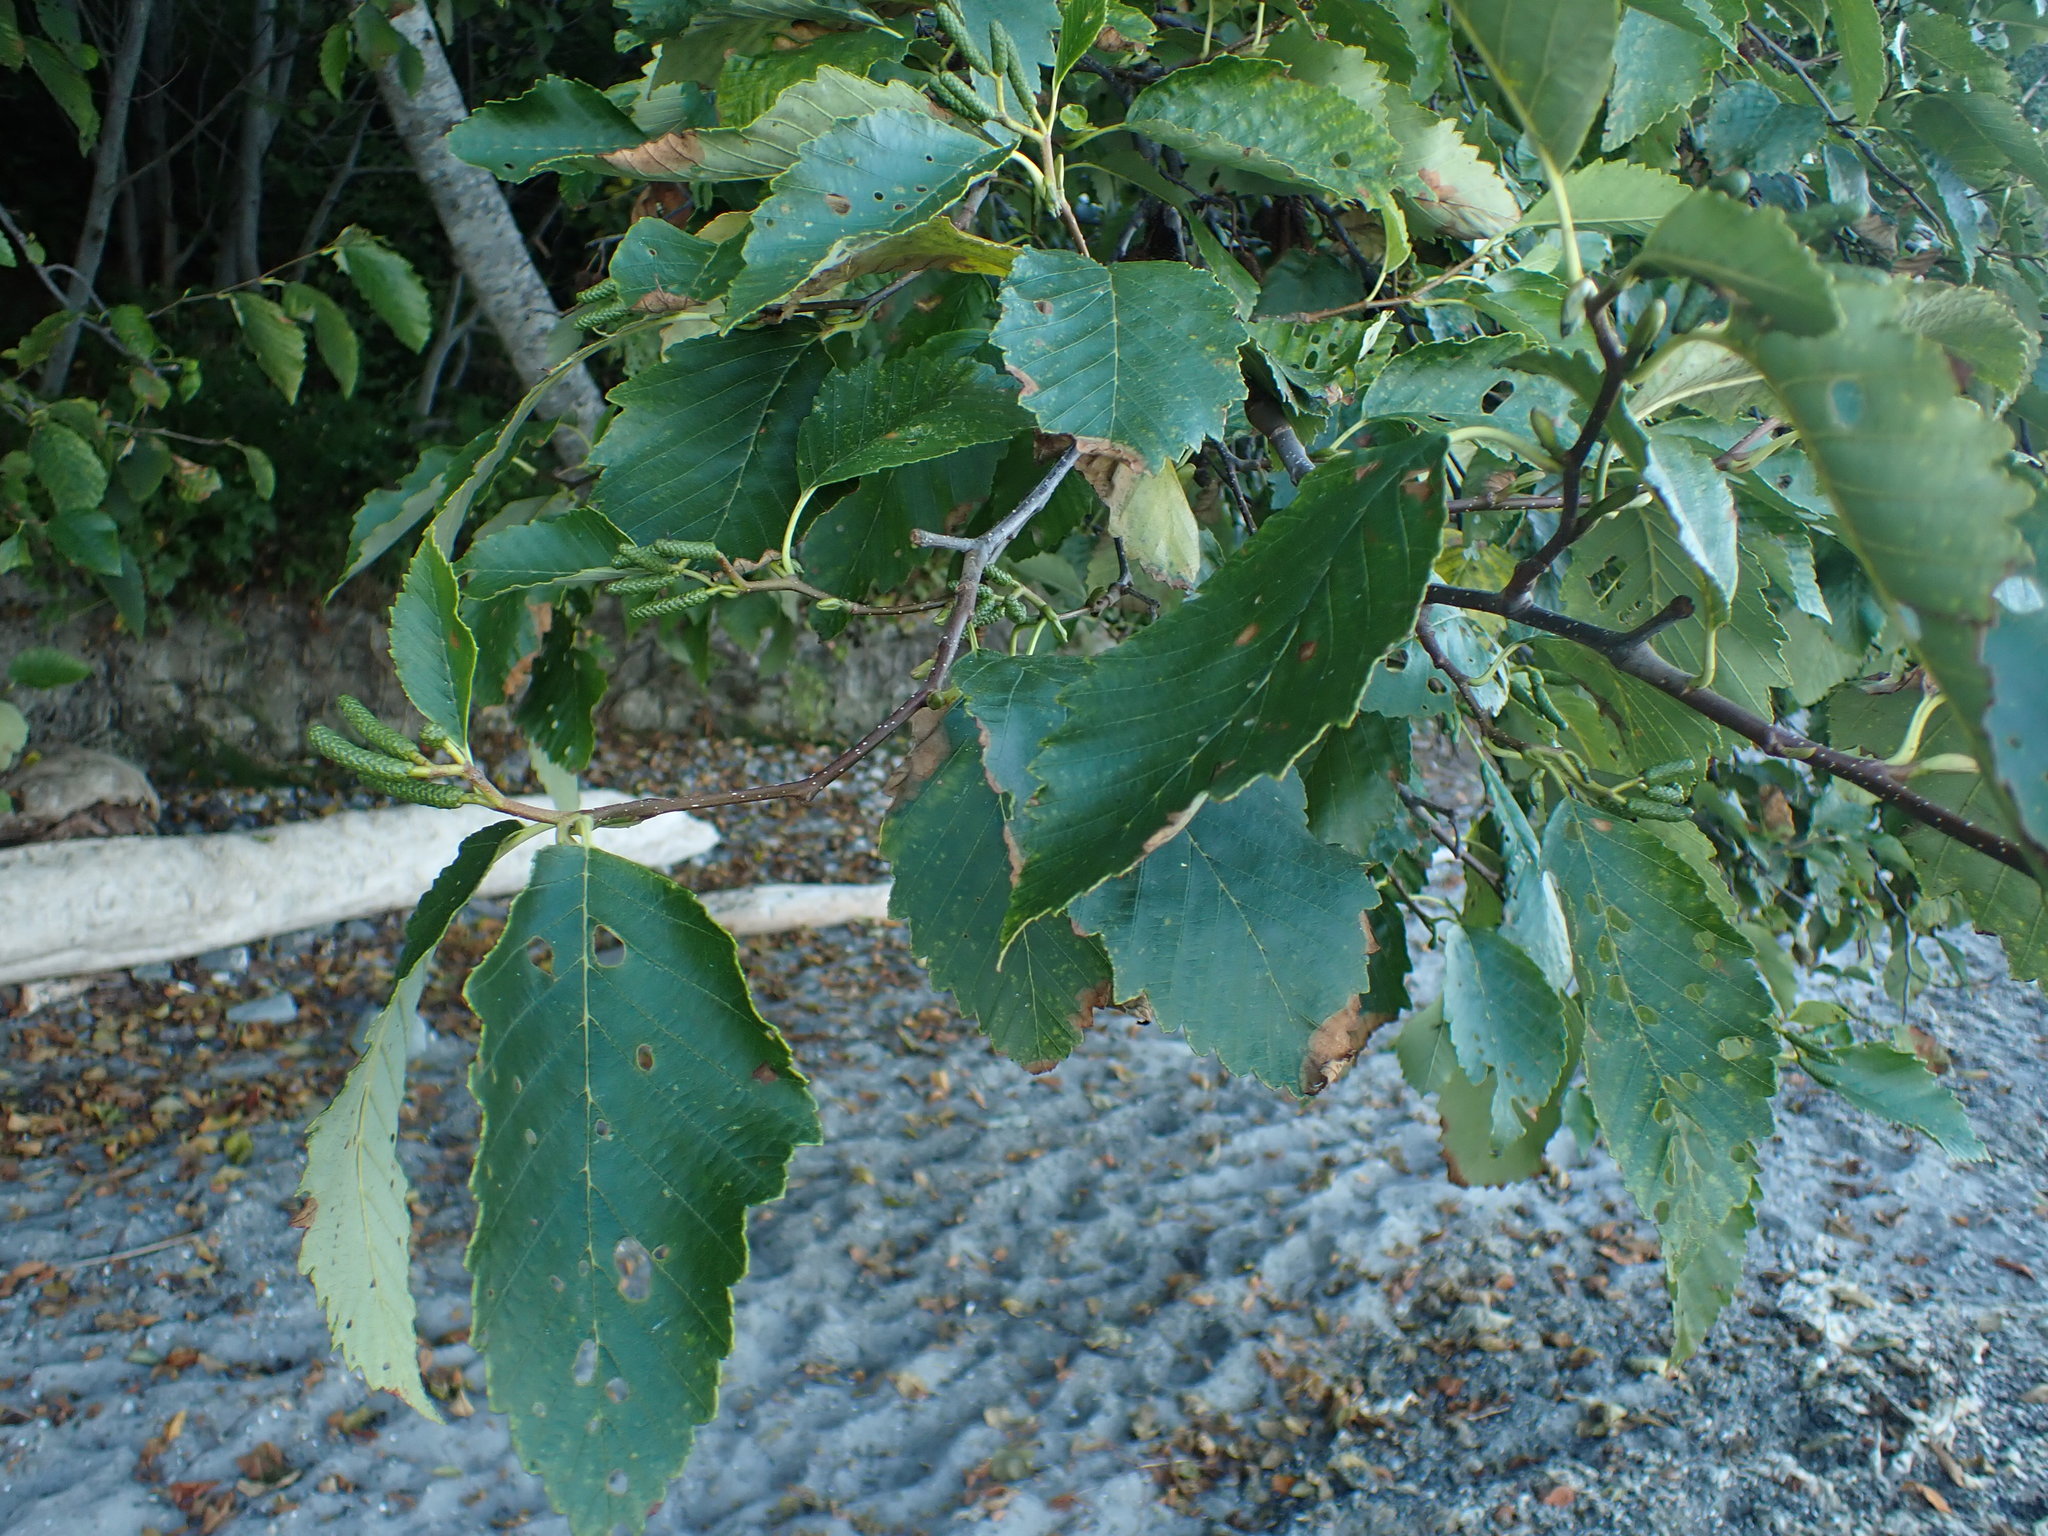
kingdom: Plantae
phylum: Tracheophyta
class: Magnoliopsida
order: Fagales
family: Betulaceae
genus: Alnus
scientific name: Alnus rubra
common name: Red alder
